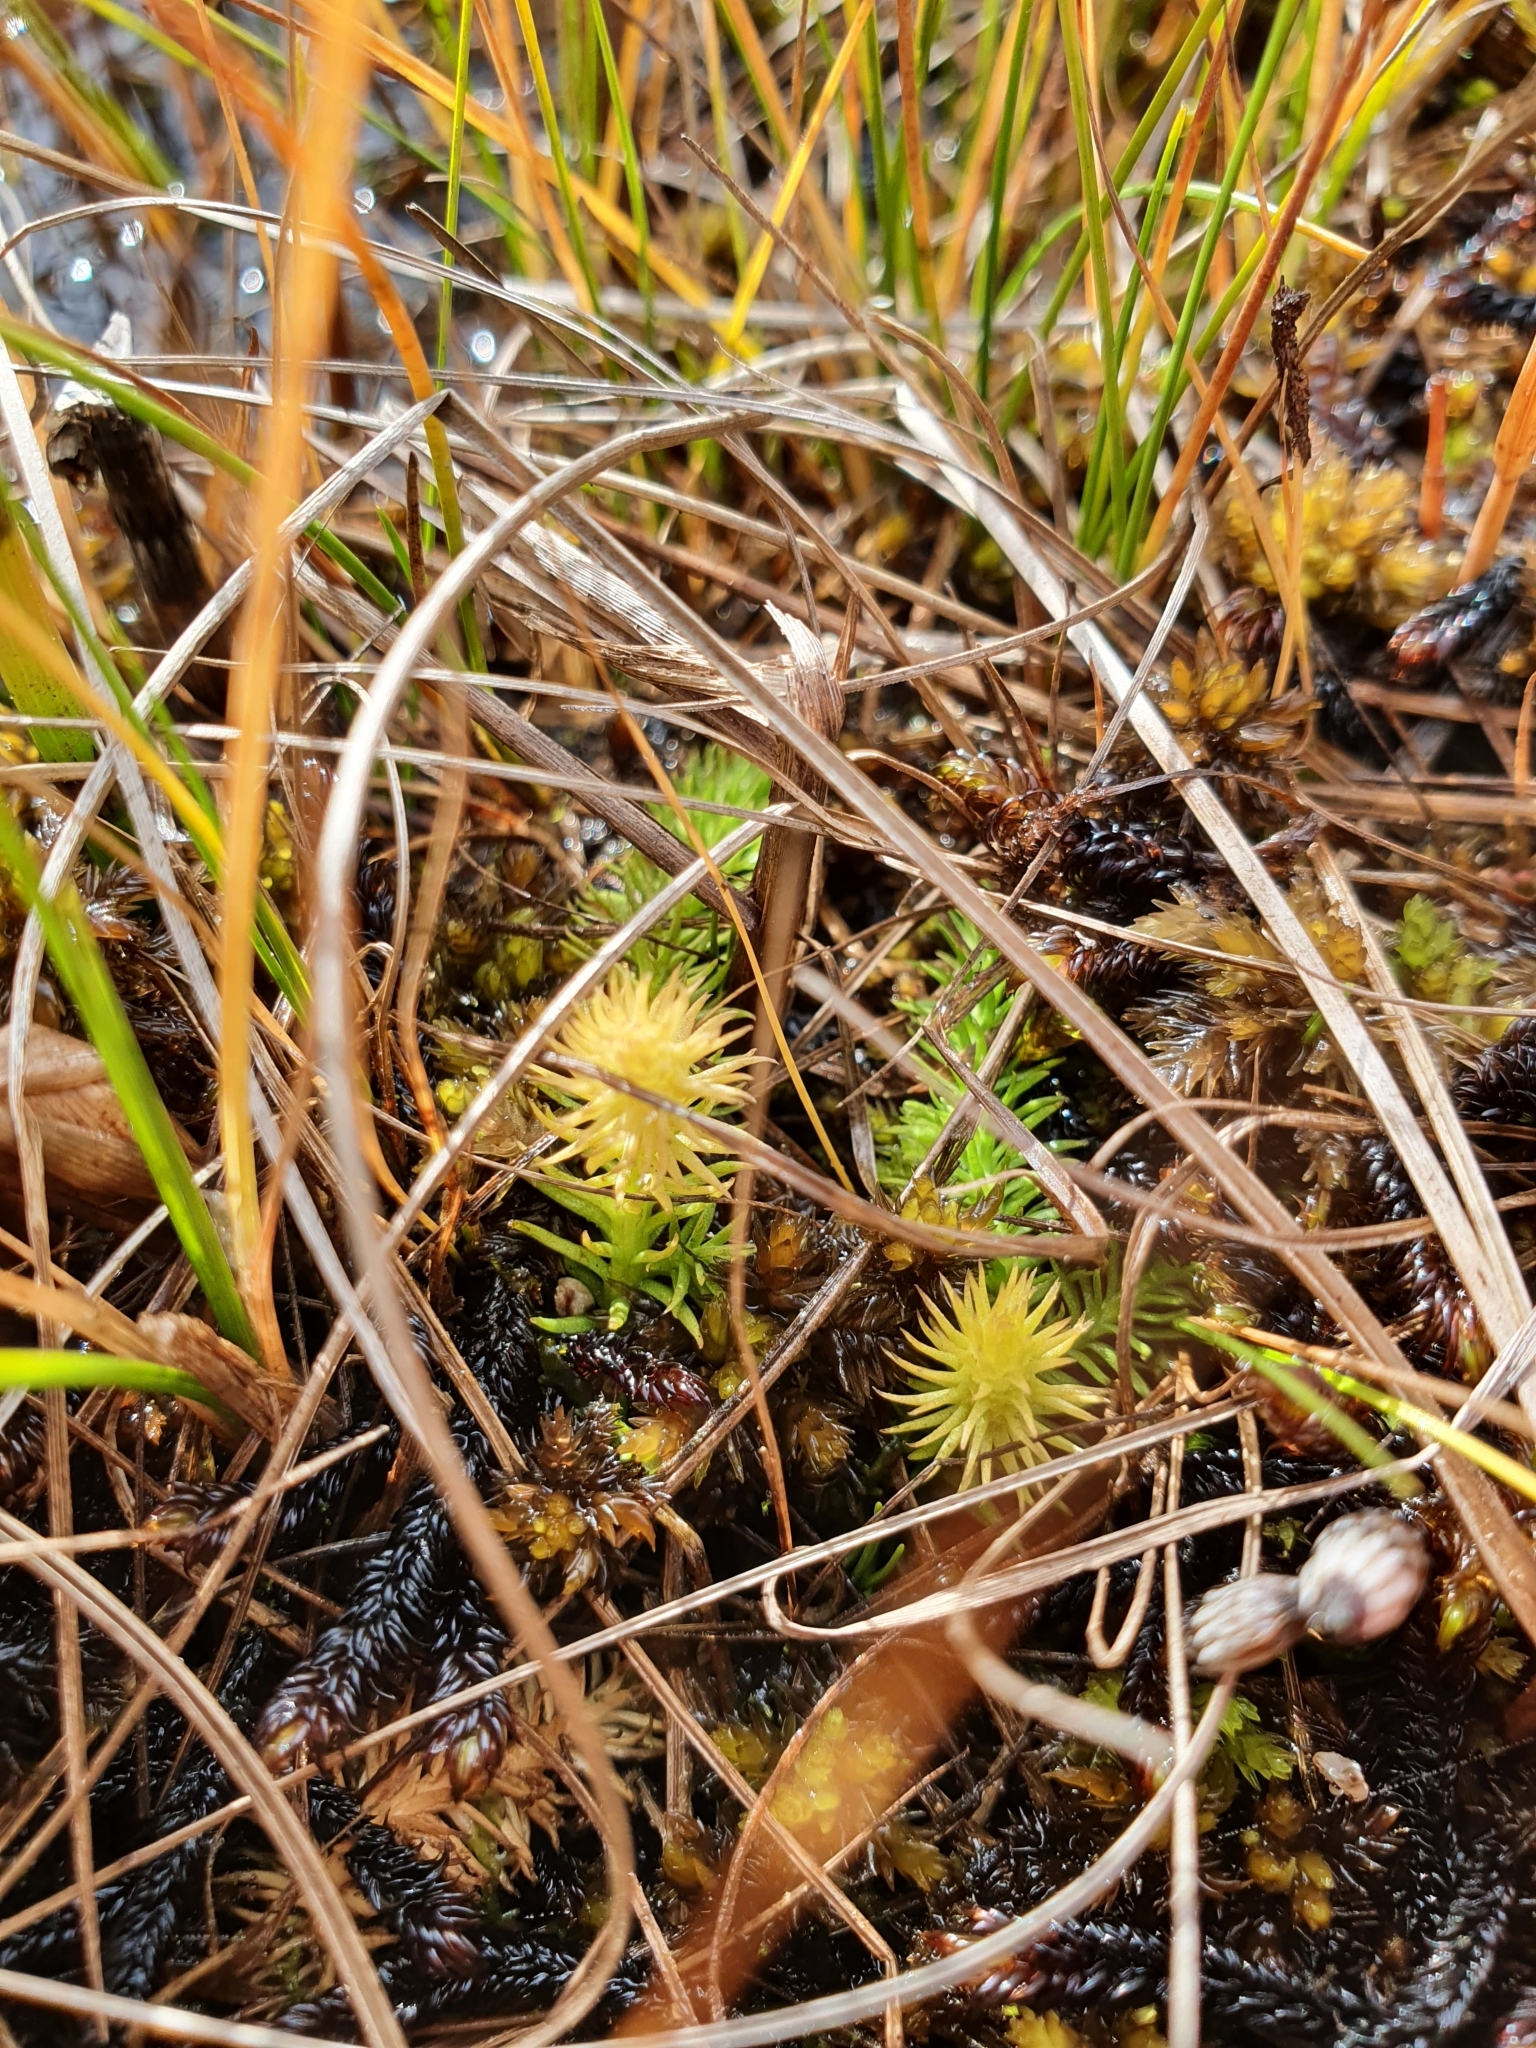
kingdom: Plantae
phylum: Tracheophyta
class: Lycopodiopsida
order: Lycopodiales
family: Lycopodiaceae
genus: Lycopodiella
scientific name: Lycopodiella inundata
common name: Marsh clubmoss
